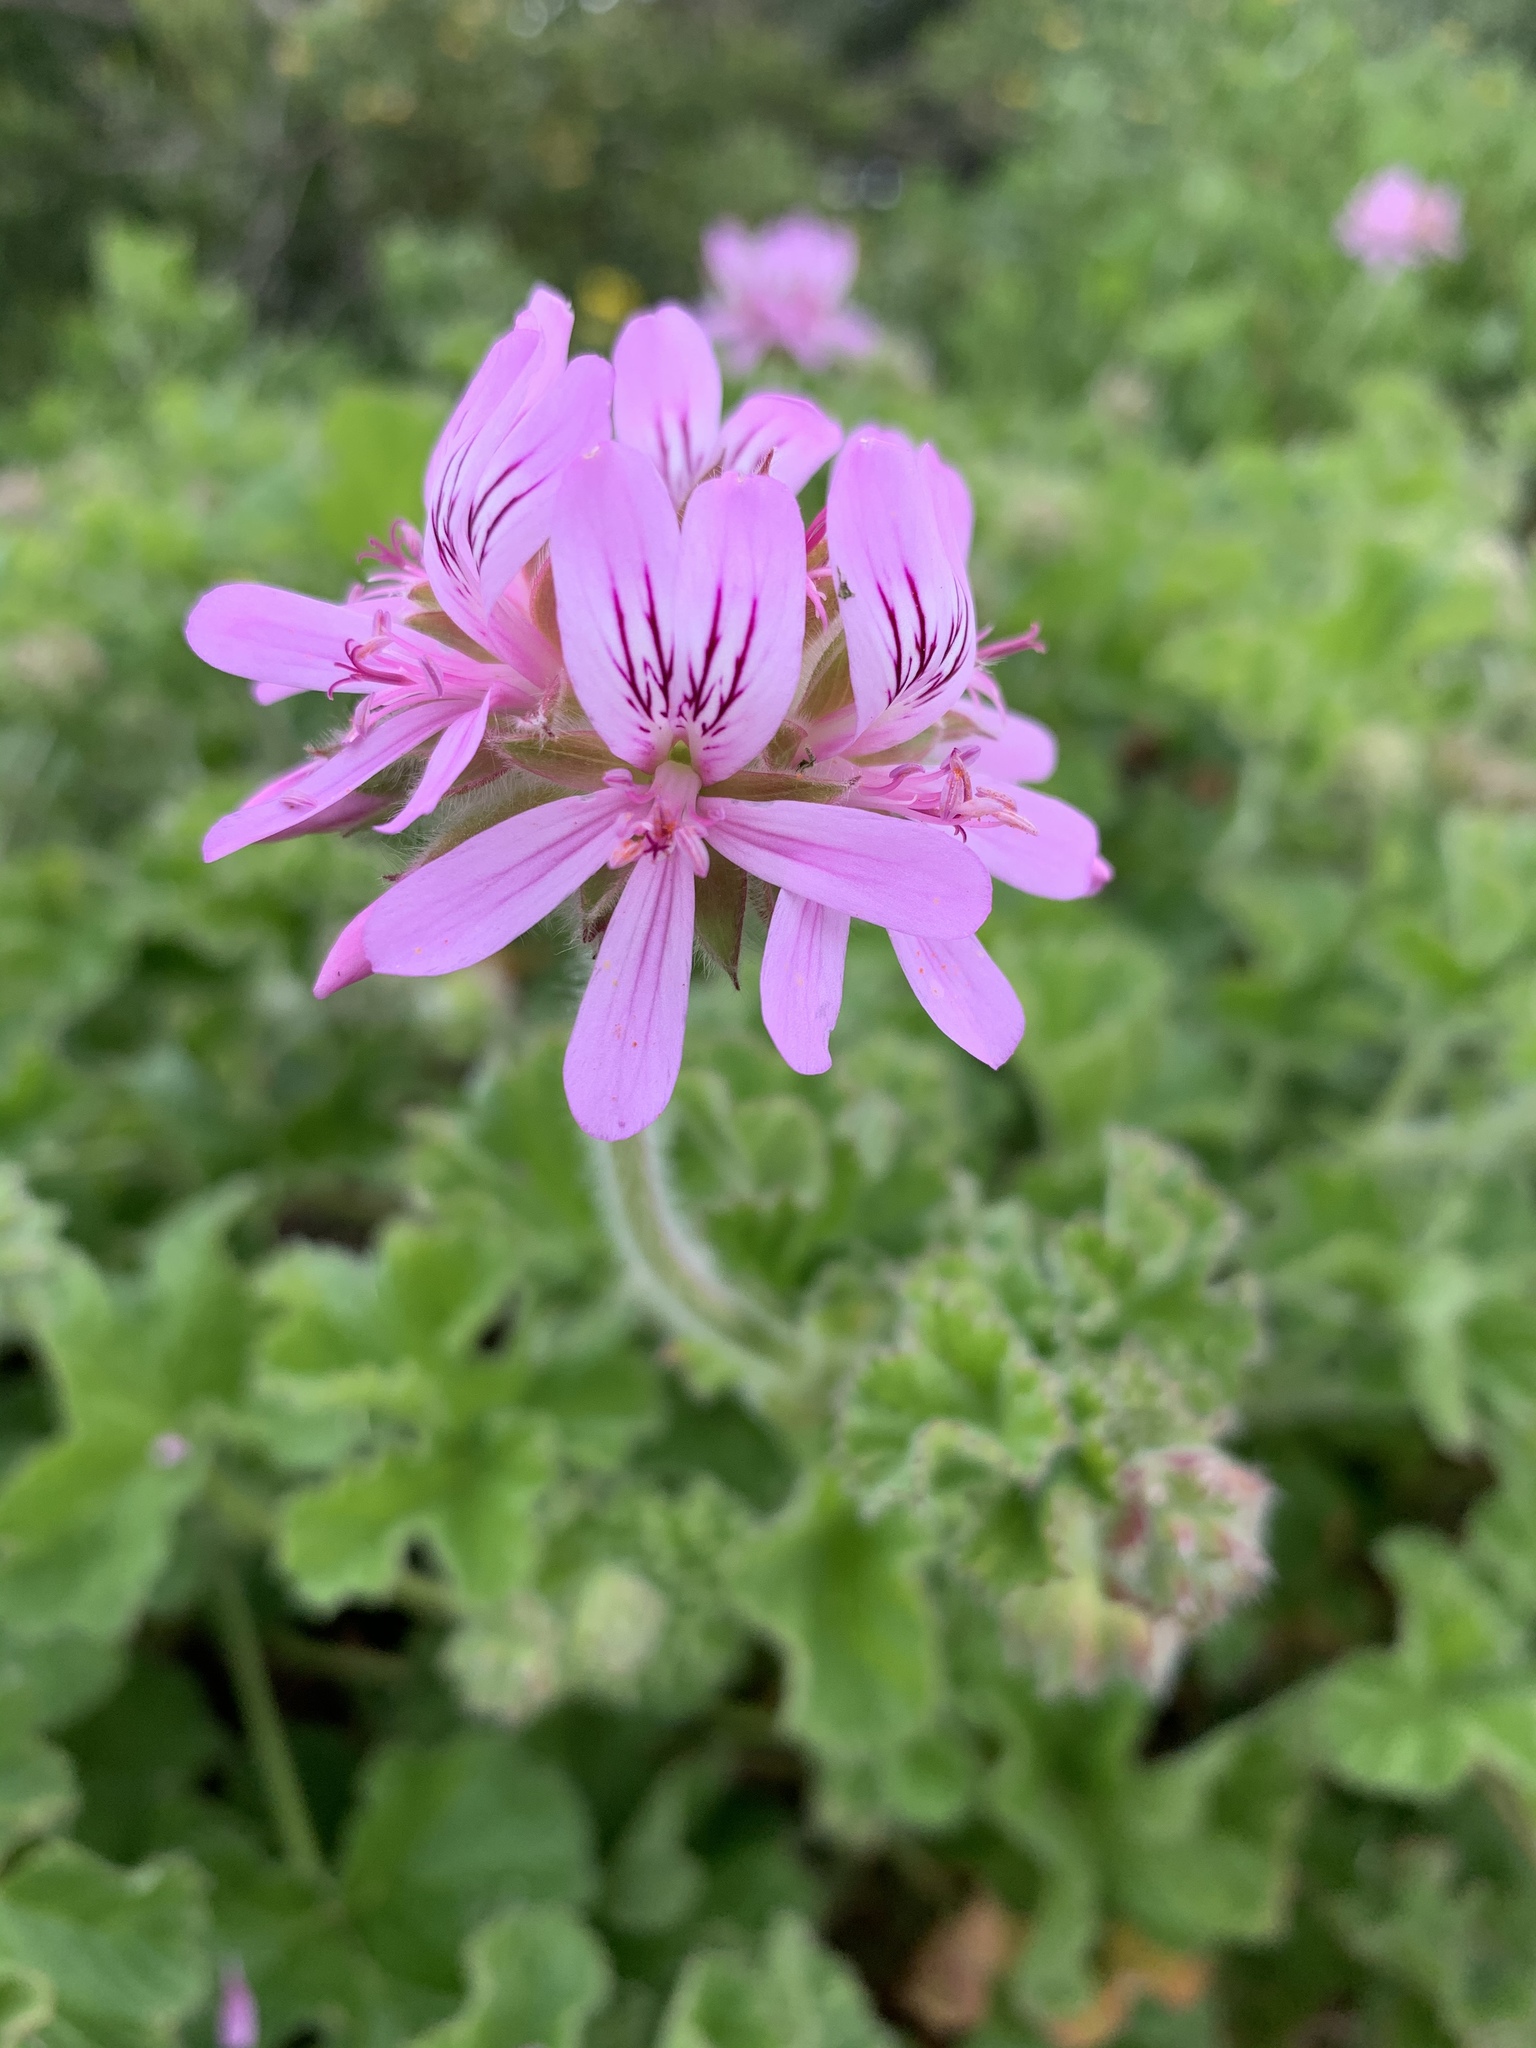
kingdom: Plantae
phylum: Tracheophyta
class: Magnoliopsida
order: Geraniales
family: Geraniaceae
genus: Pelargonium
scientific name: Pelargonium capitatum
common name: Rose scented geranium
